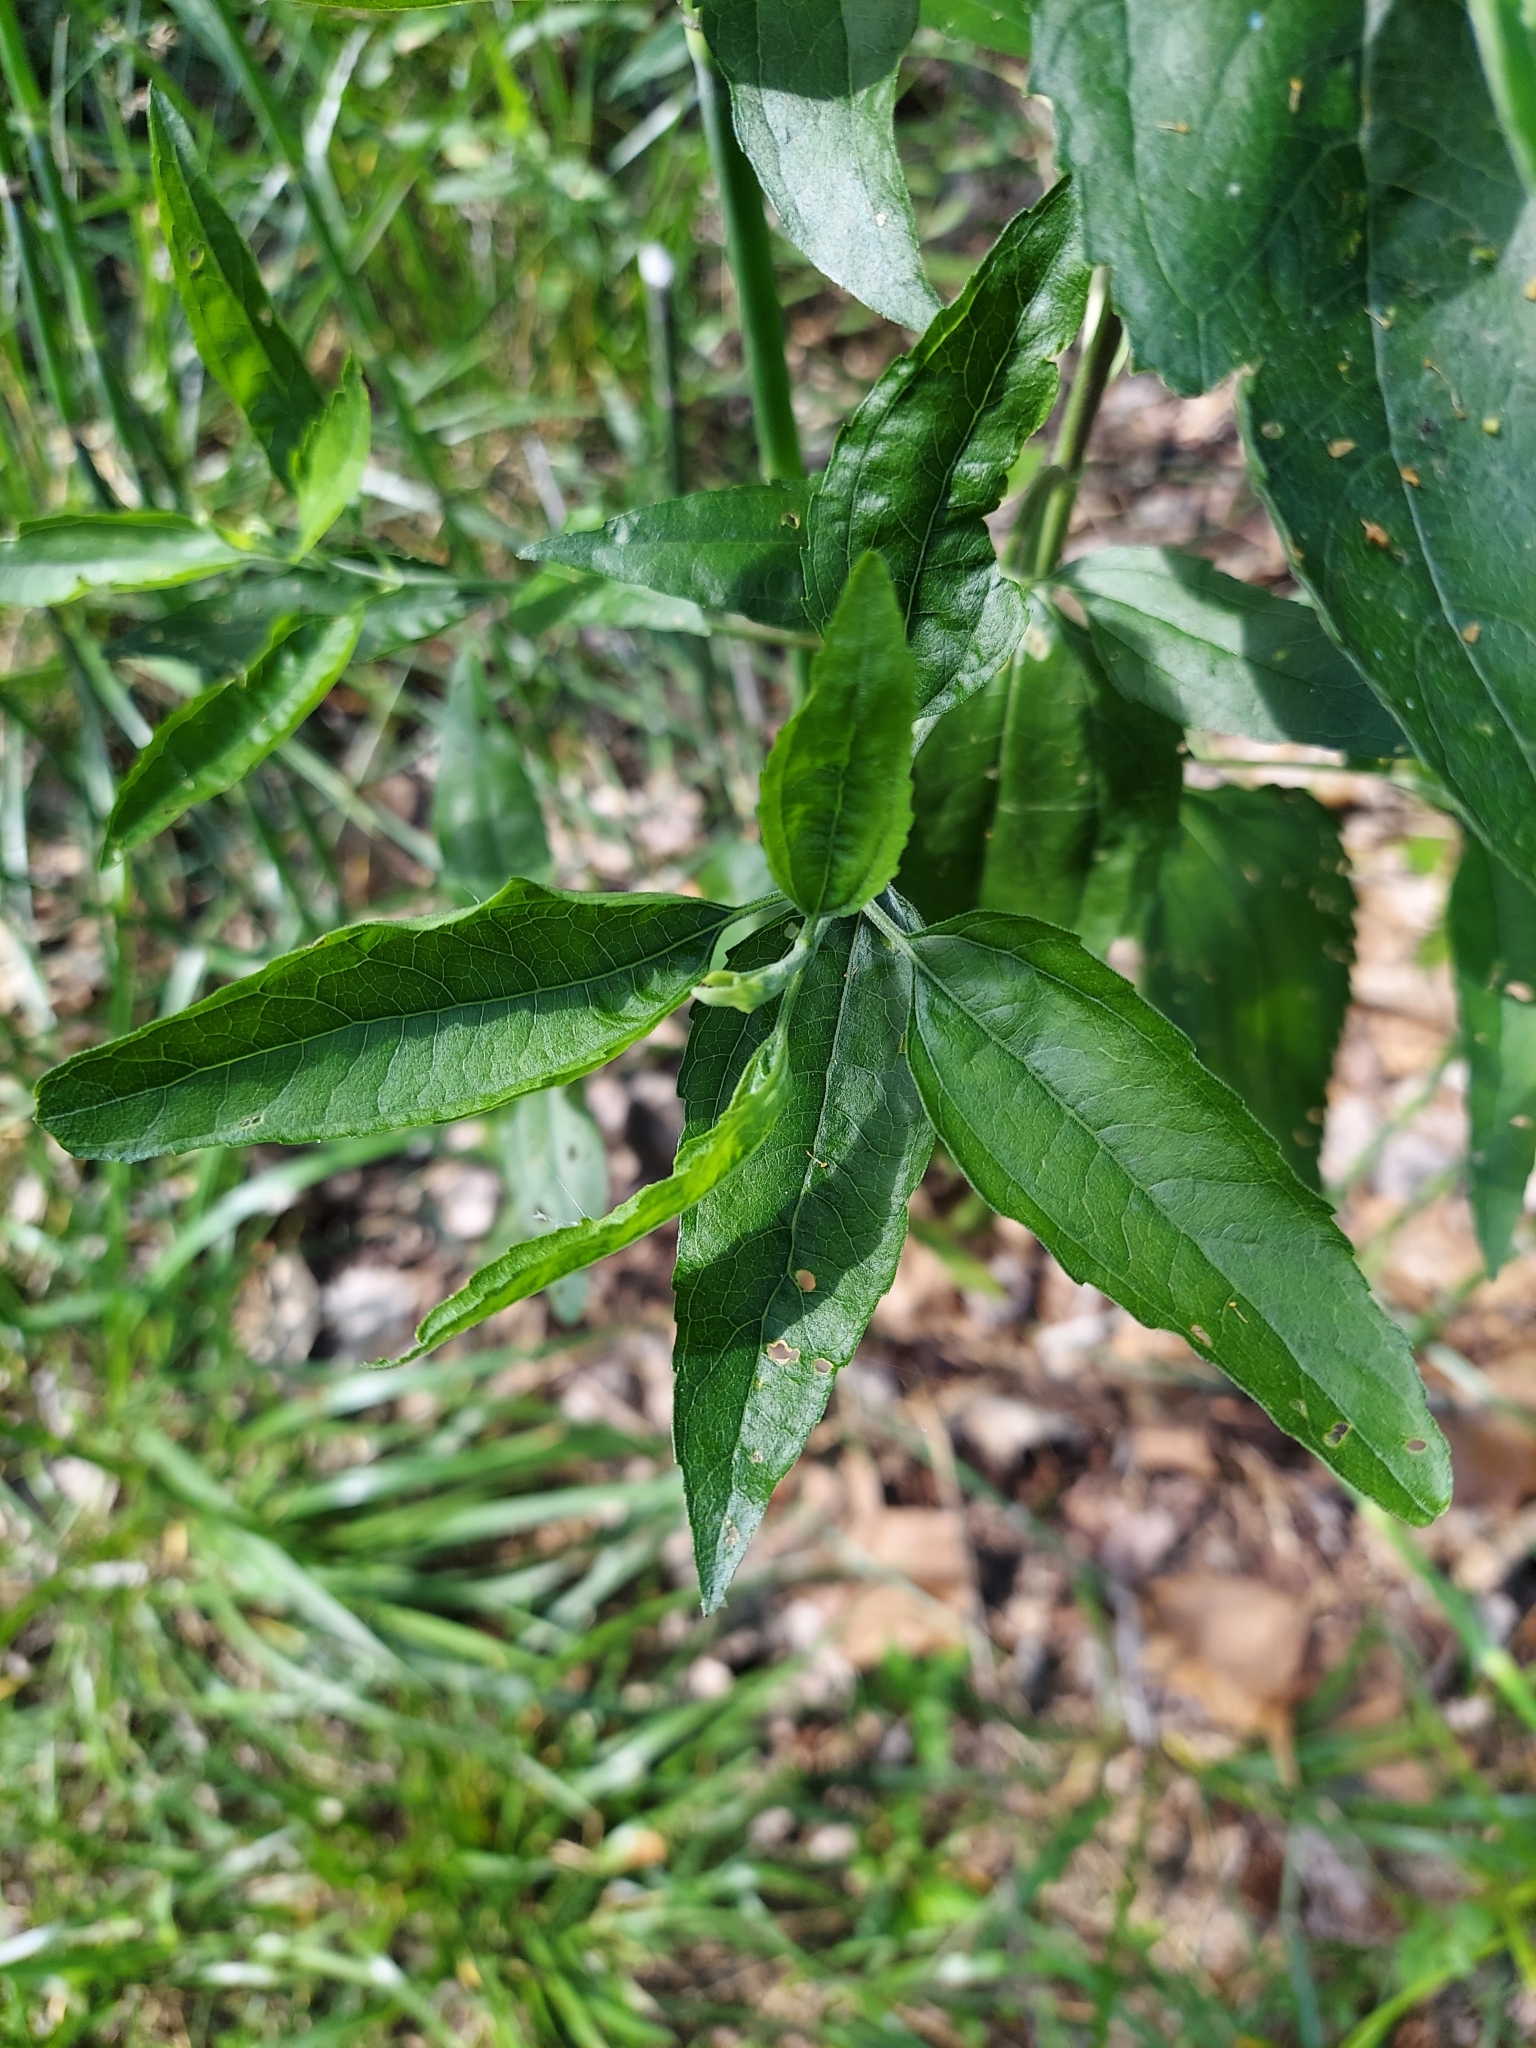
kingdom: Plantae
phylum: Tracheophyta
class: Magnoliopsida
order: Asterales
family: Asteraceae
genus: Eupatorium
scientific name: Eupatorium serotinum
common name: Late boneset
